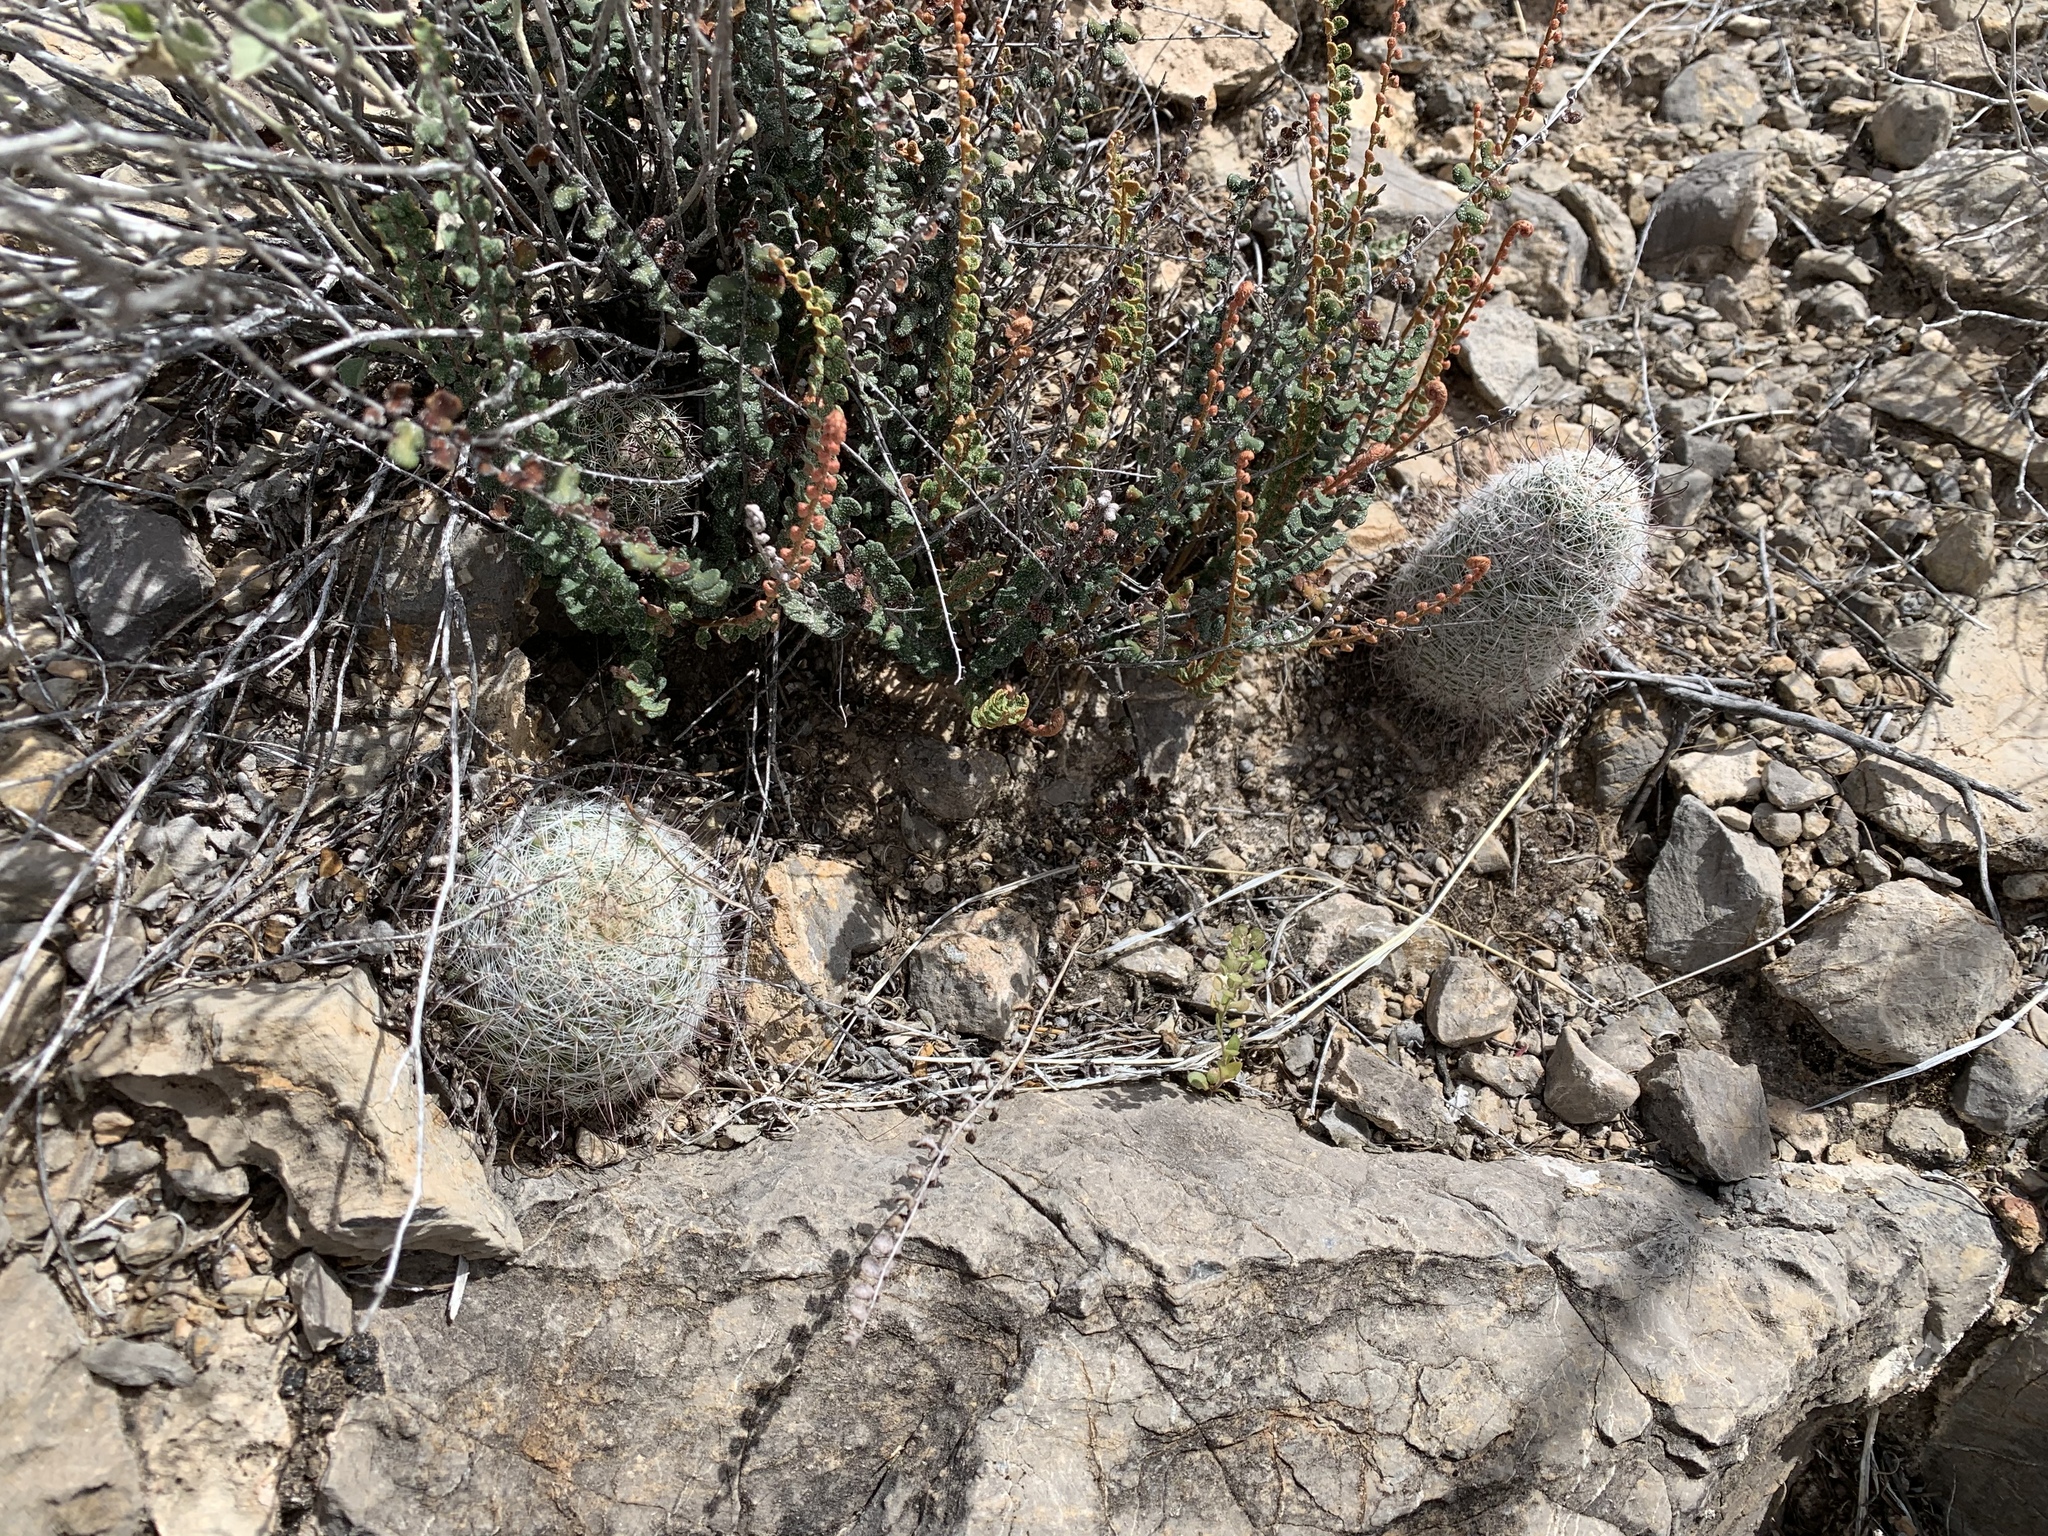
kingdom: Plantae
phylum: Tracheophyta
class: Magnoliopsida
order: Caryophyllales
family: Cactaceae
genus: Cochemiea
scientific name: Cochemiea grahamii
